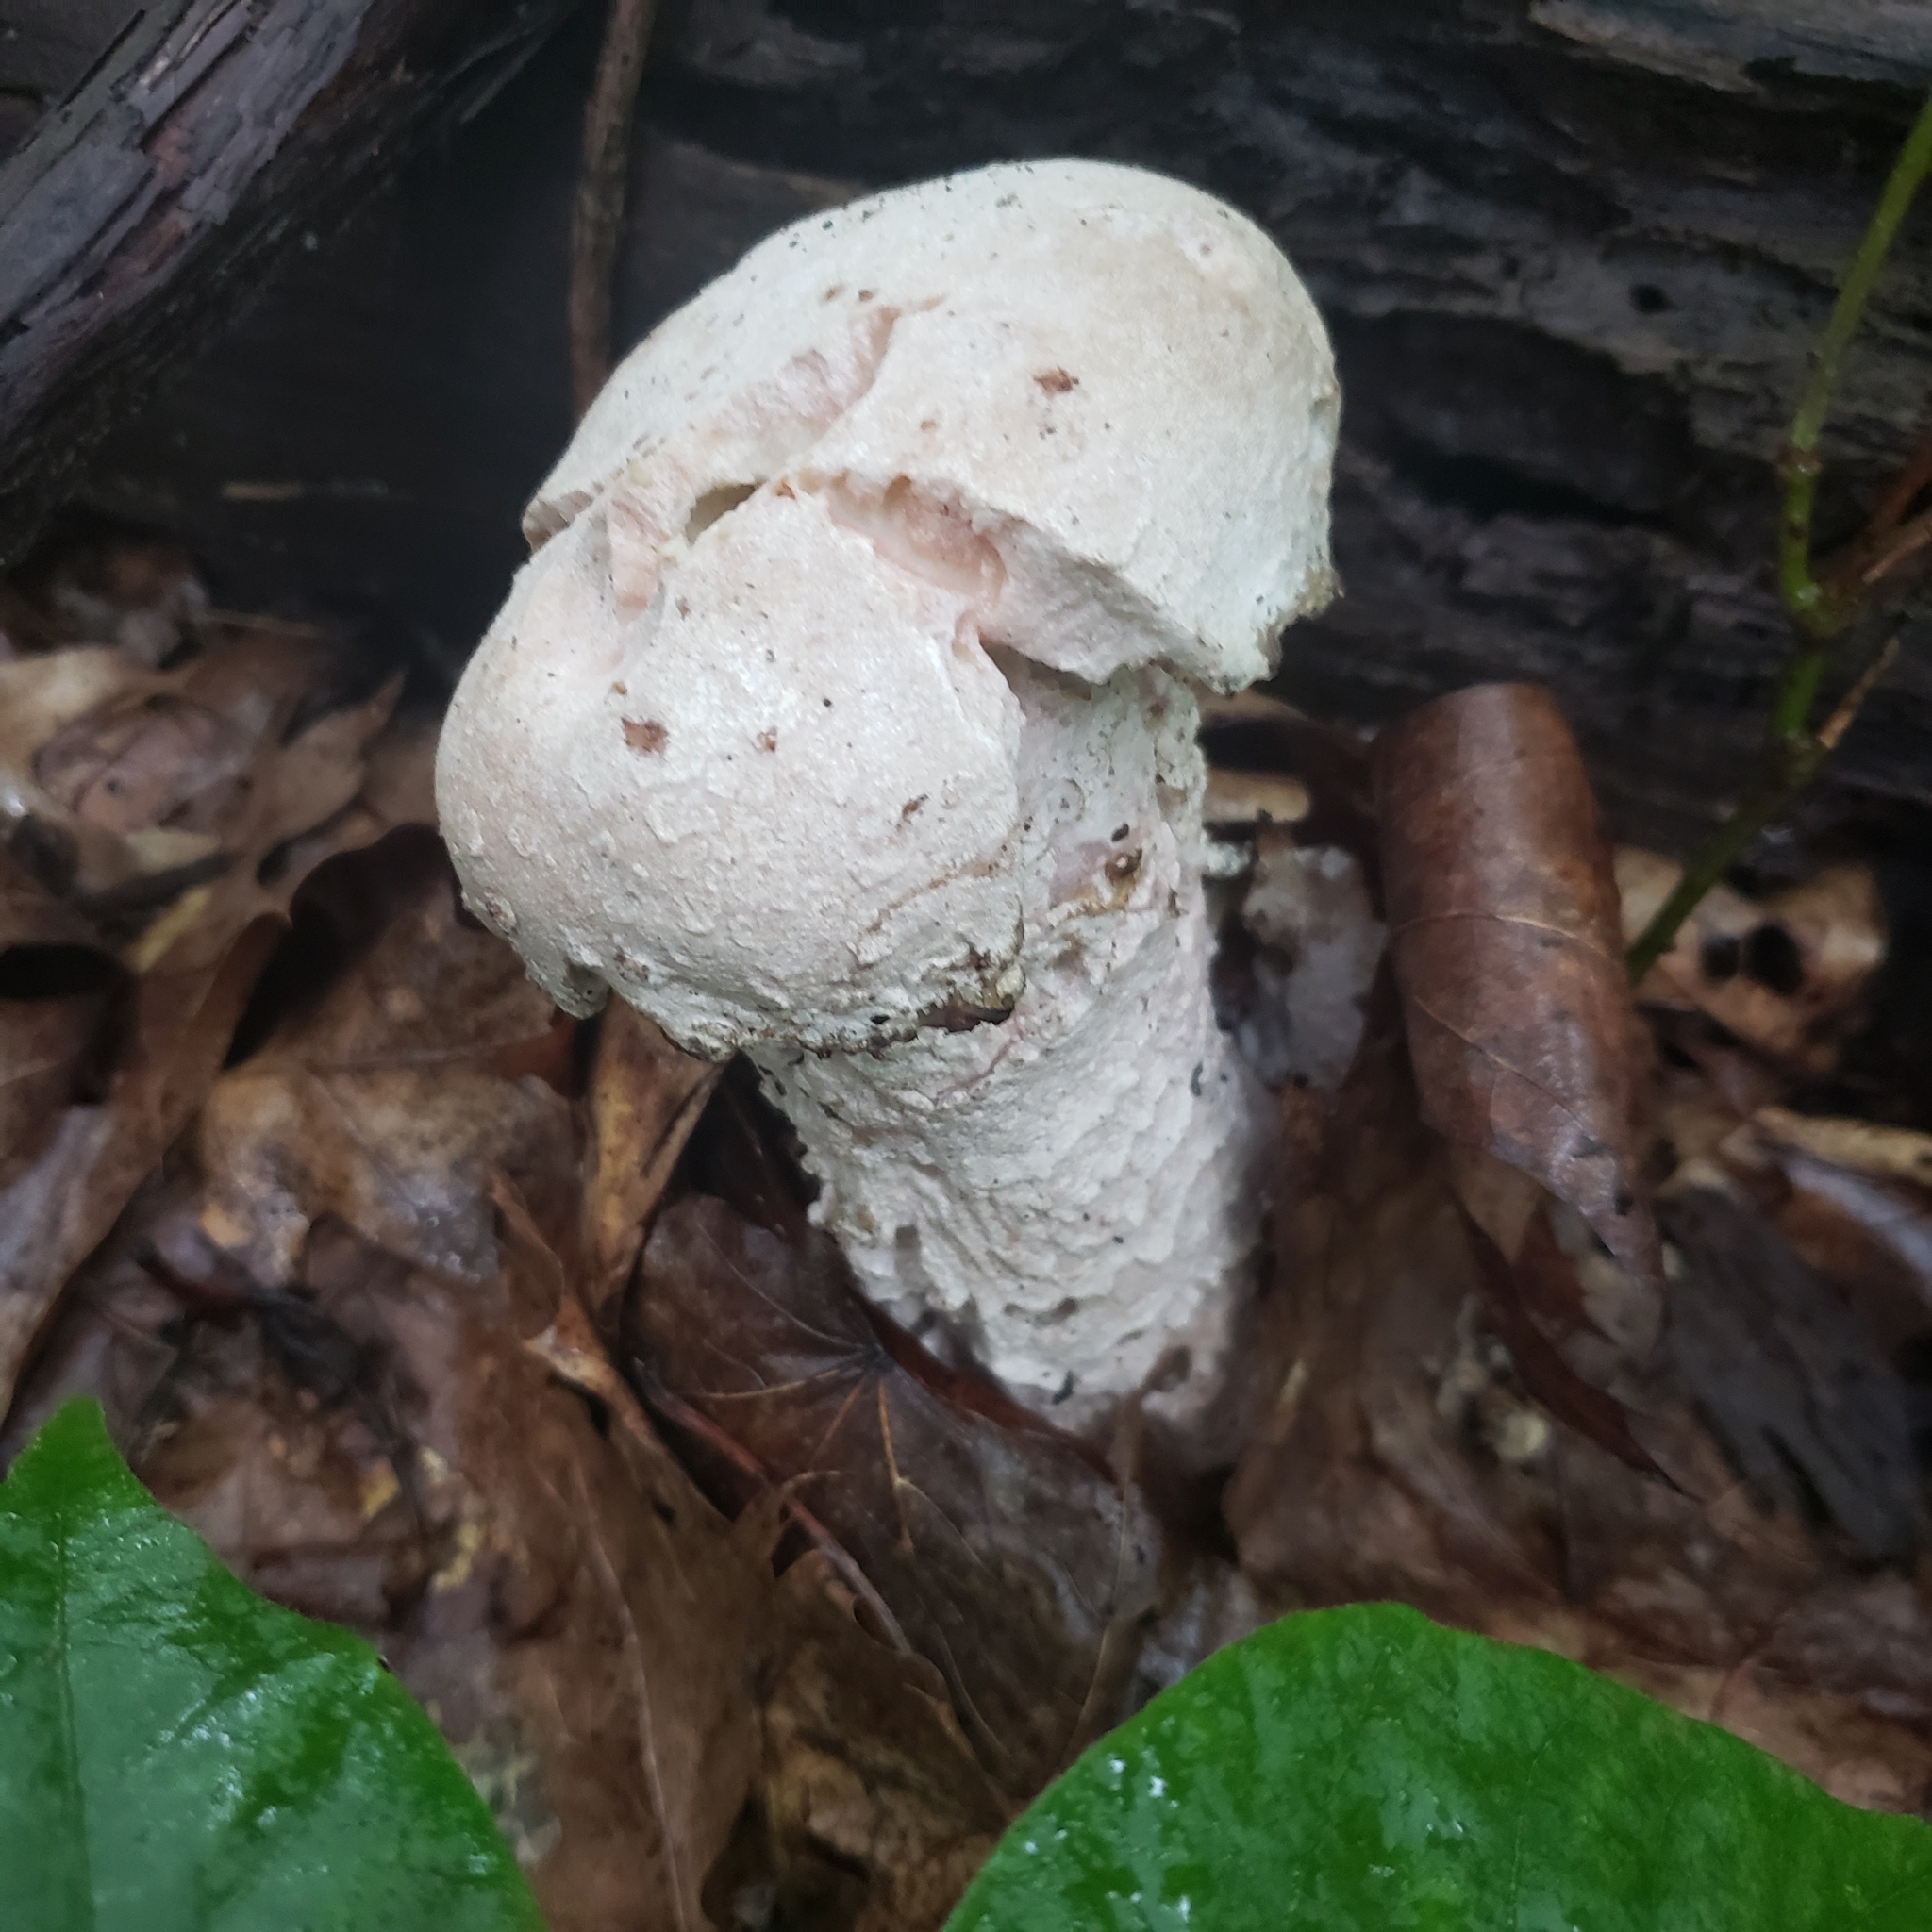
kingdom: Fungi
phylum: Ascomycota
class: Sordariomycetes
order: Hypocreales
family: Hypocreaceae
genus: Hypomyces
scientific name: Hypomyces hyalinus
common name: Amanita mold
